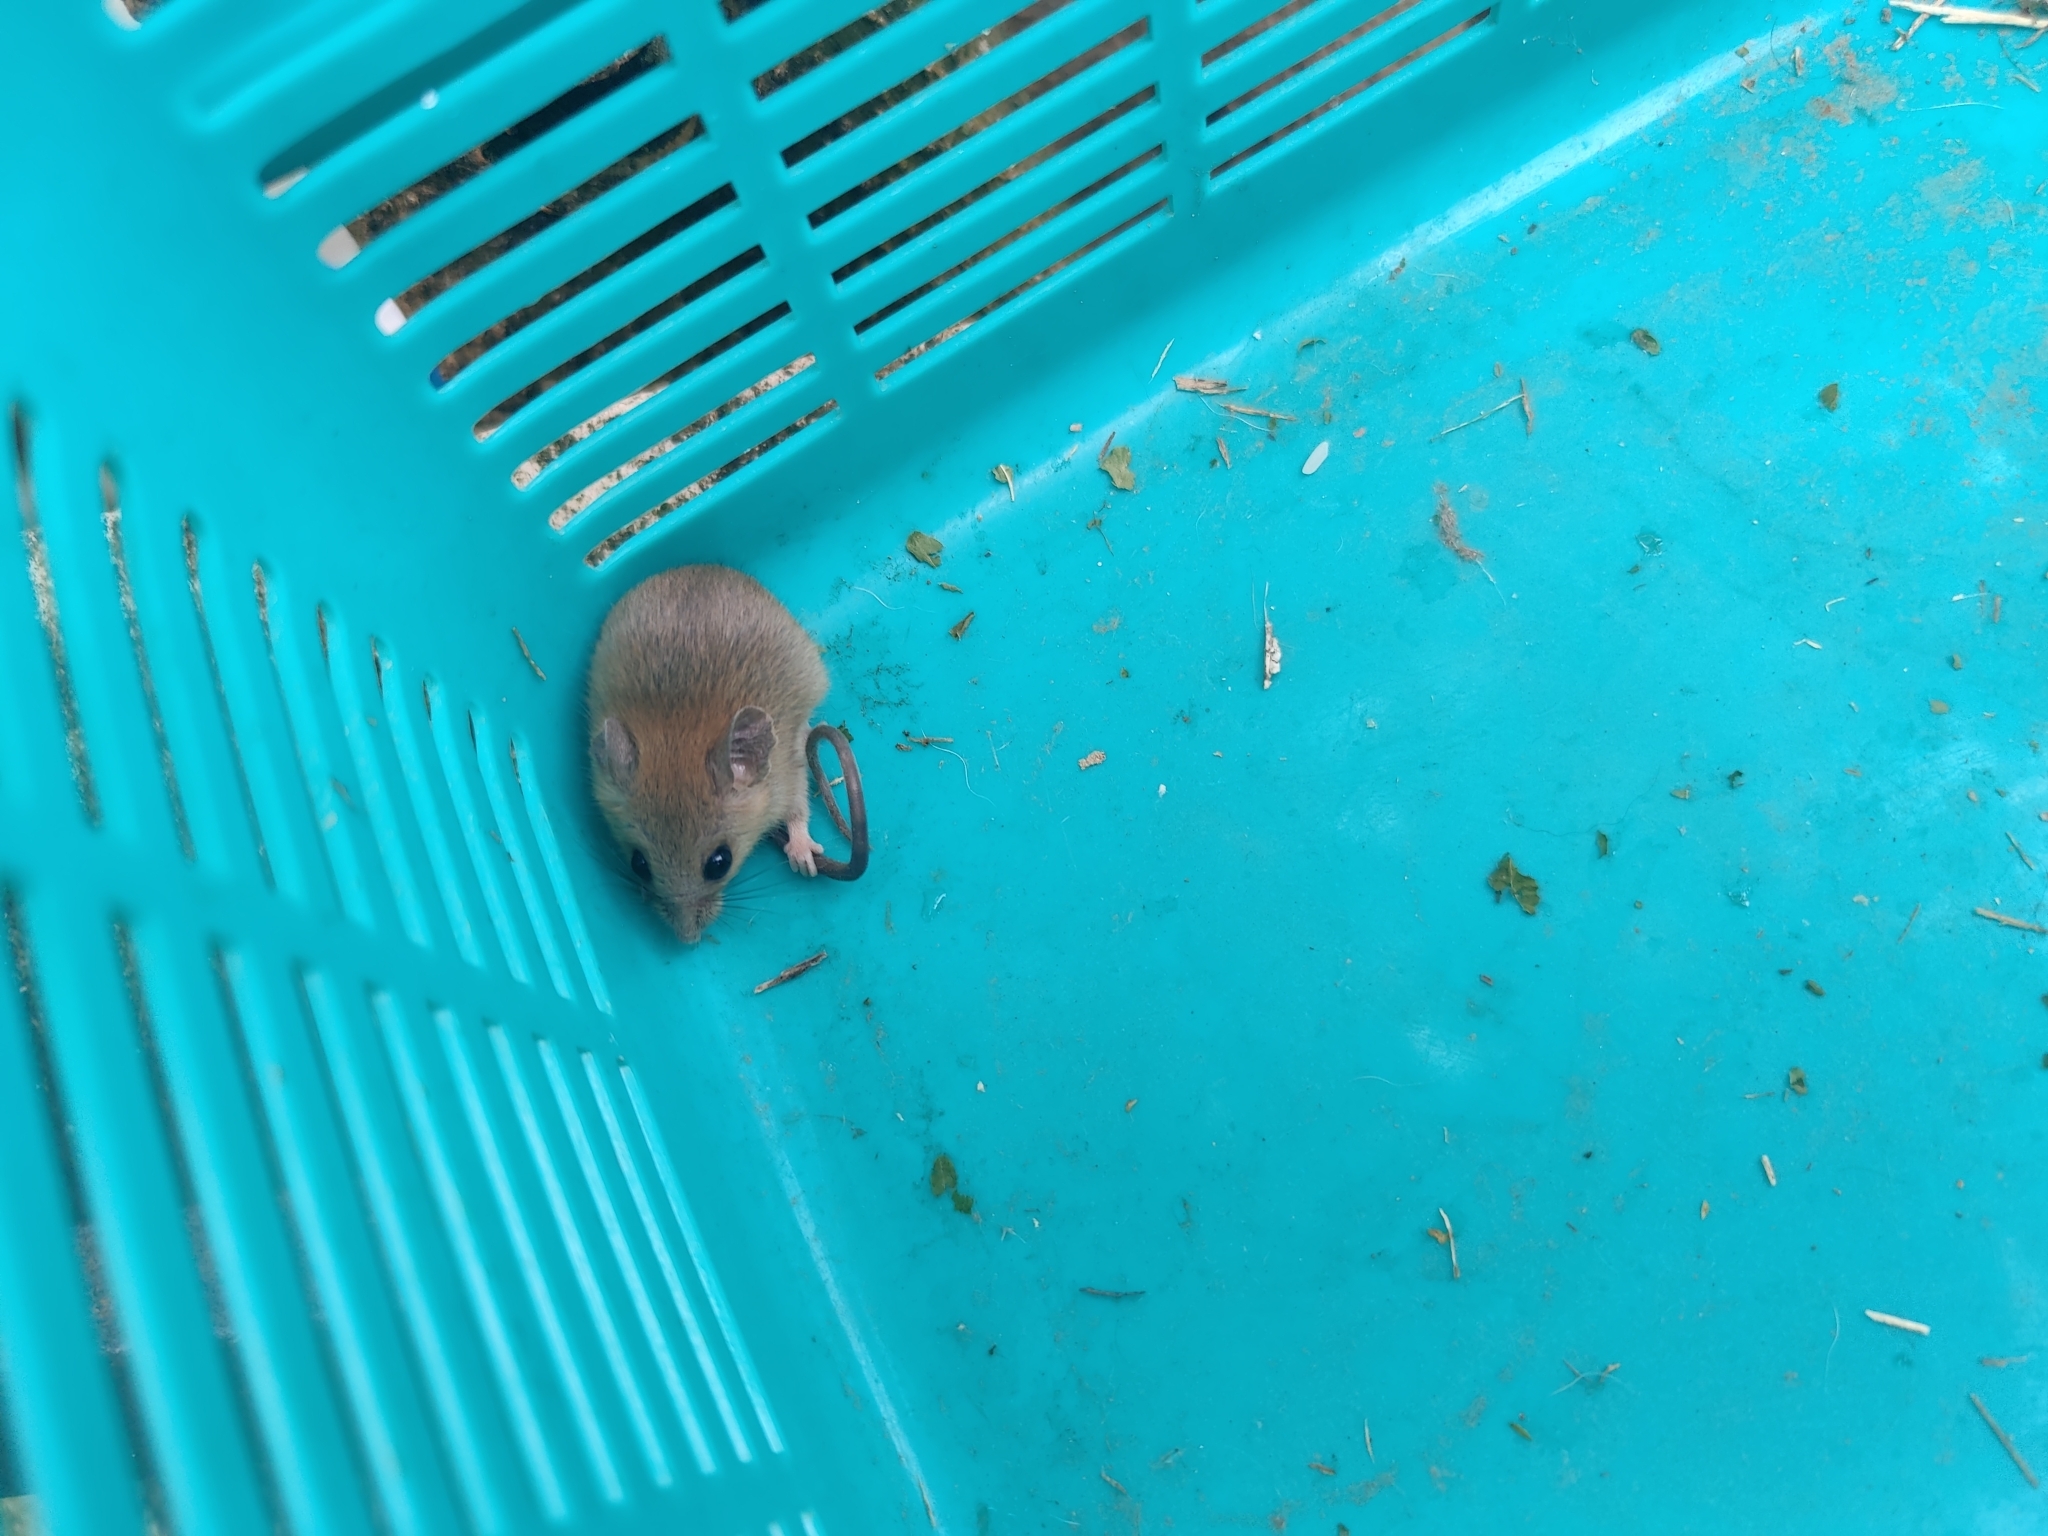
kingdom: Animalia
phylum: Chordata
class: Mammalia
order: Rodentia
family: Muridae
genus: Vandeleuria
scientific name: Vandeleuria oleracea
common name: Indomalayan vandeleuria
